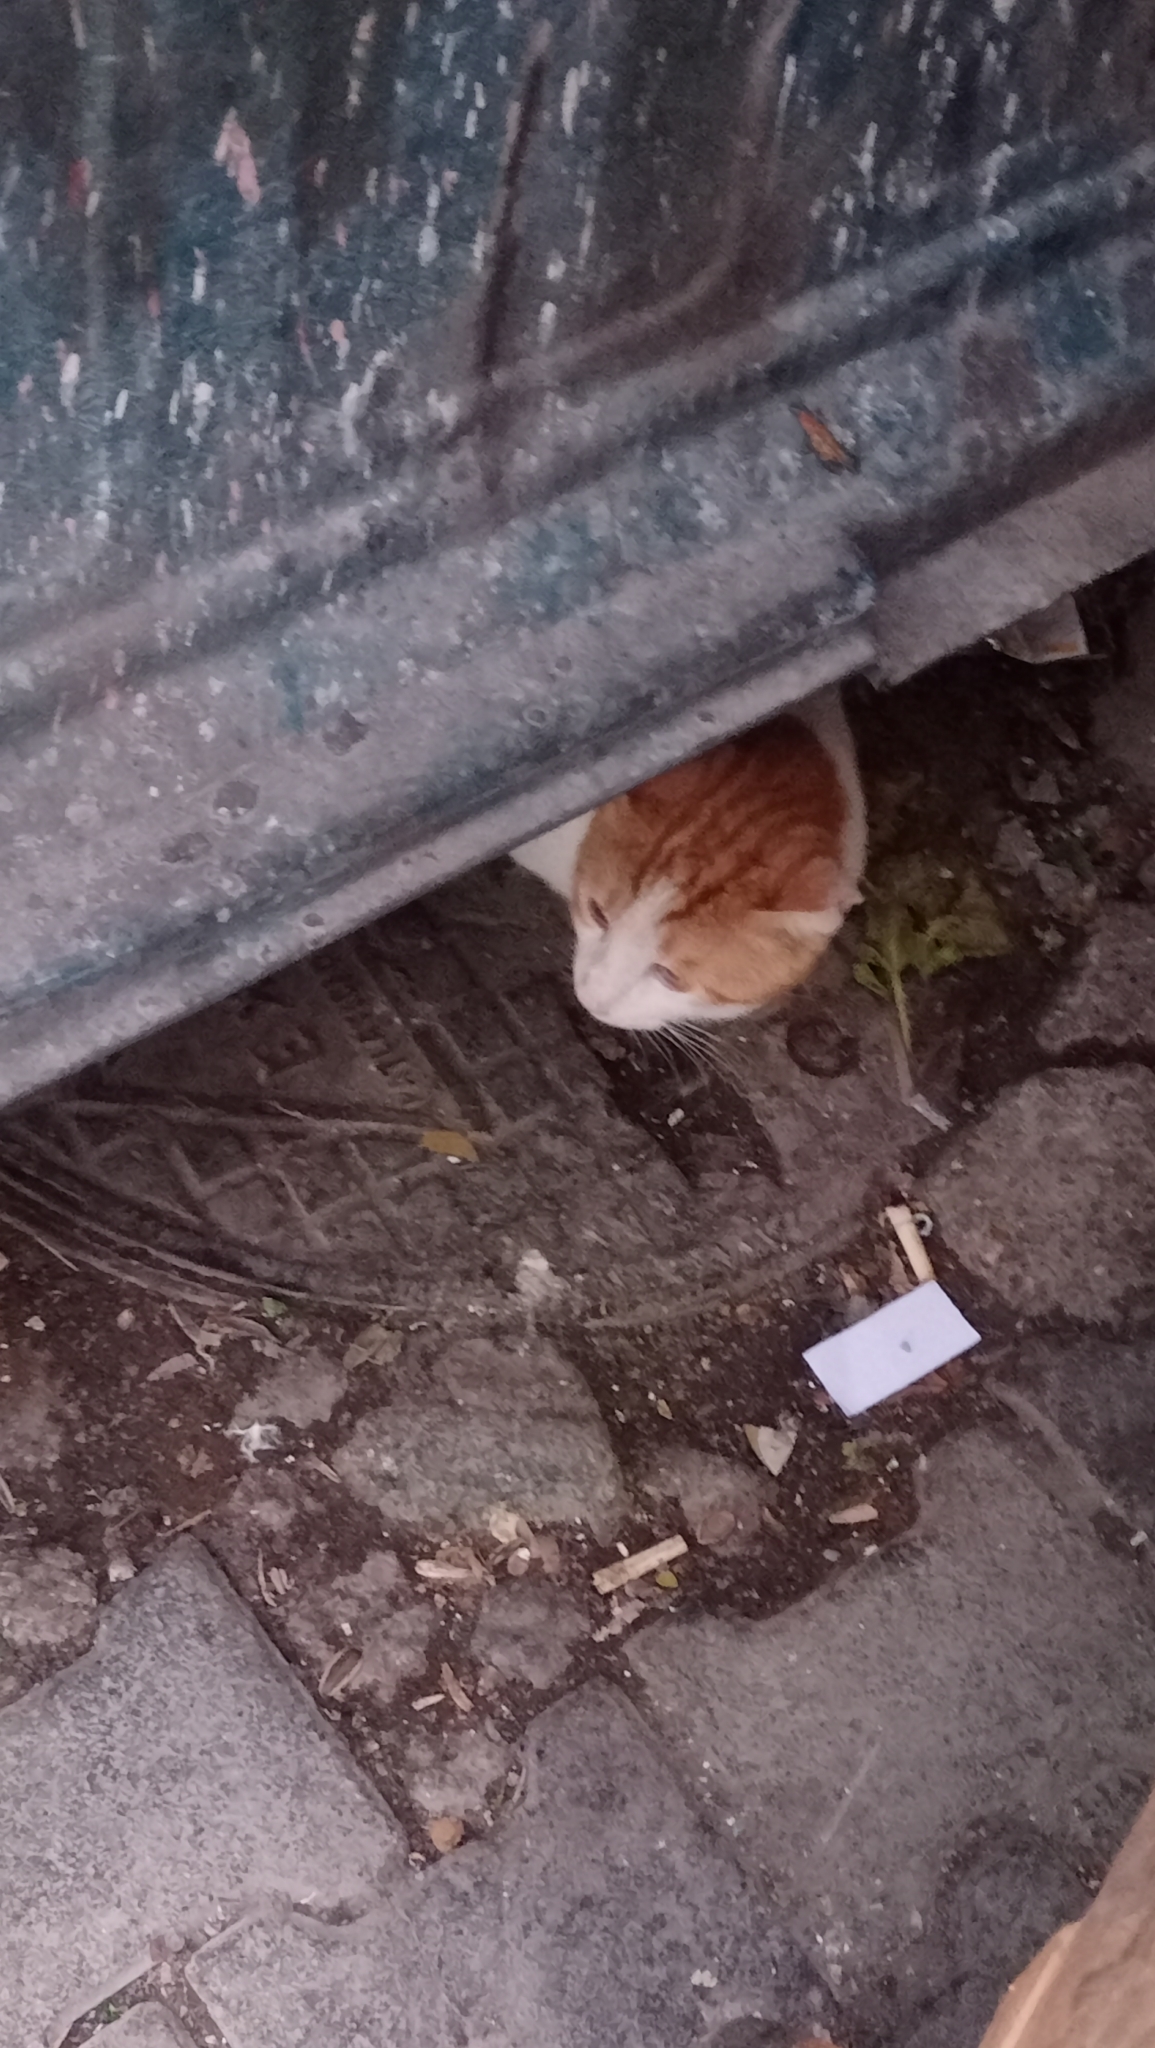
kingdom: Animalia
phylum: Chordata
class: Mammalia
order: Carnivora
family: Felidae
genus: Felis
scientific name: Felis catus
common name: Domestic cat
